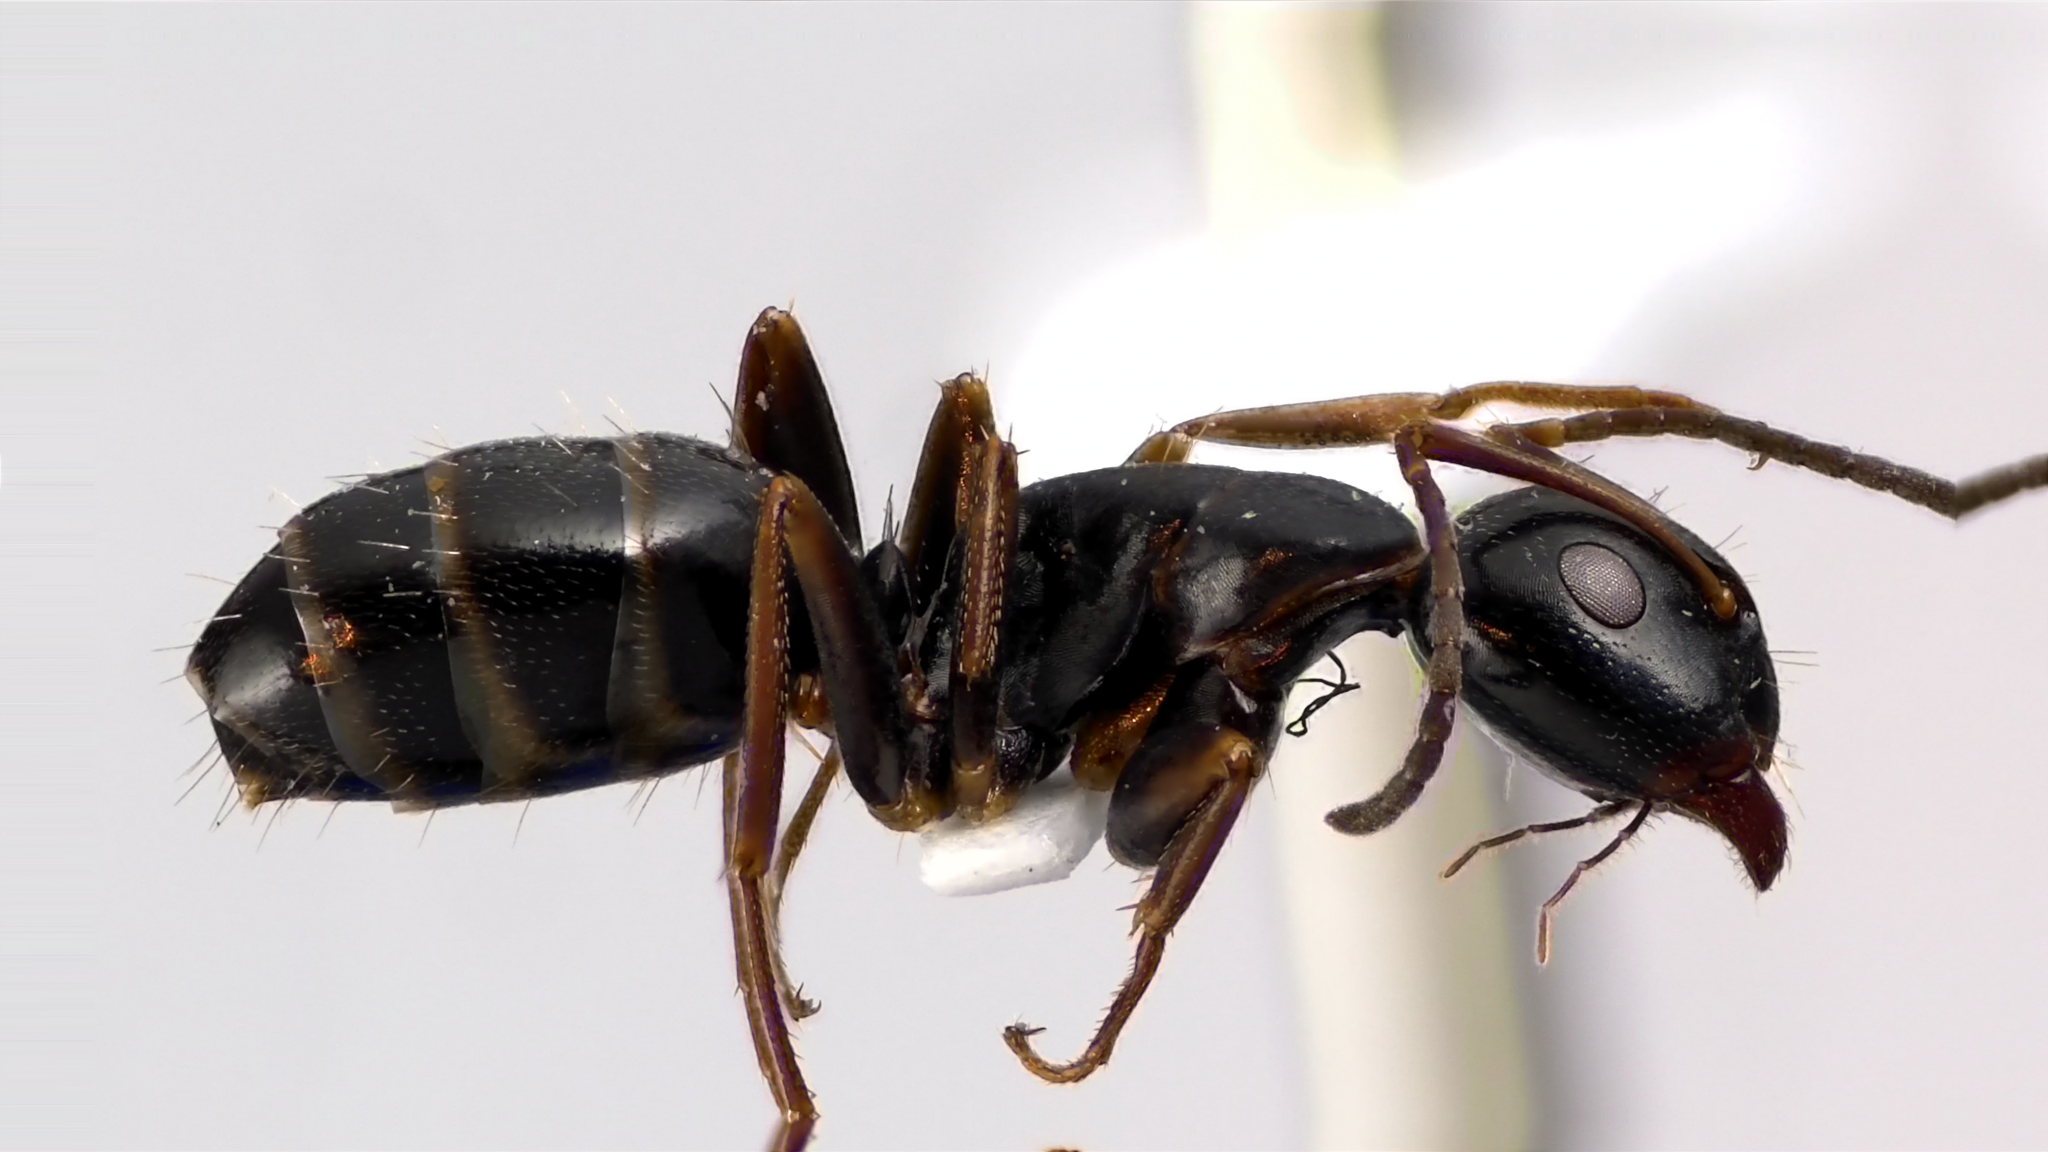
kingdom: Animalia
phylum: Arthropoda
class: Insecta
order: Hymenoptera
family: Formicidae
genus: Camponotus
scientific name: Camponotus nearcticus
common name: Smaller carpenter ant
